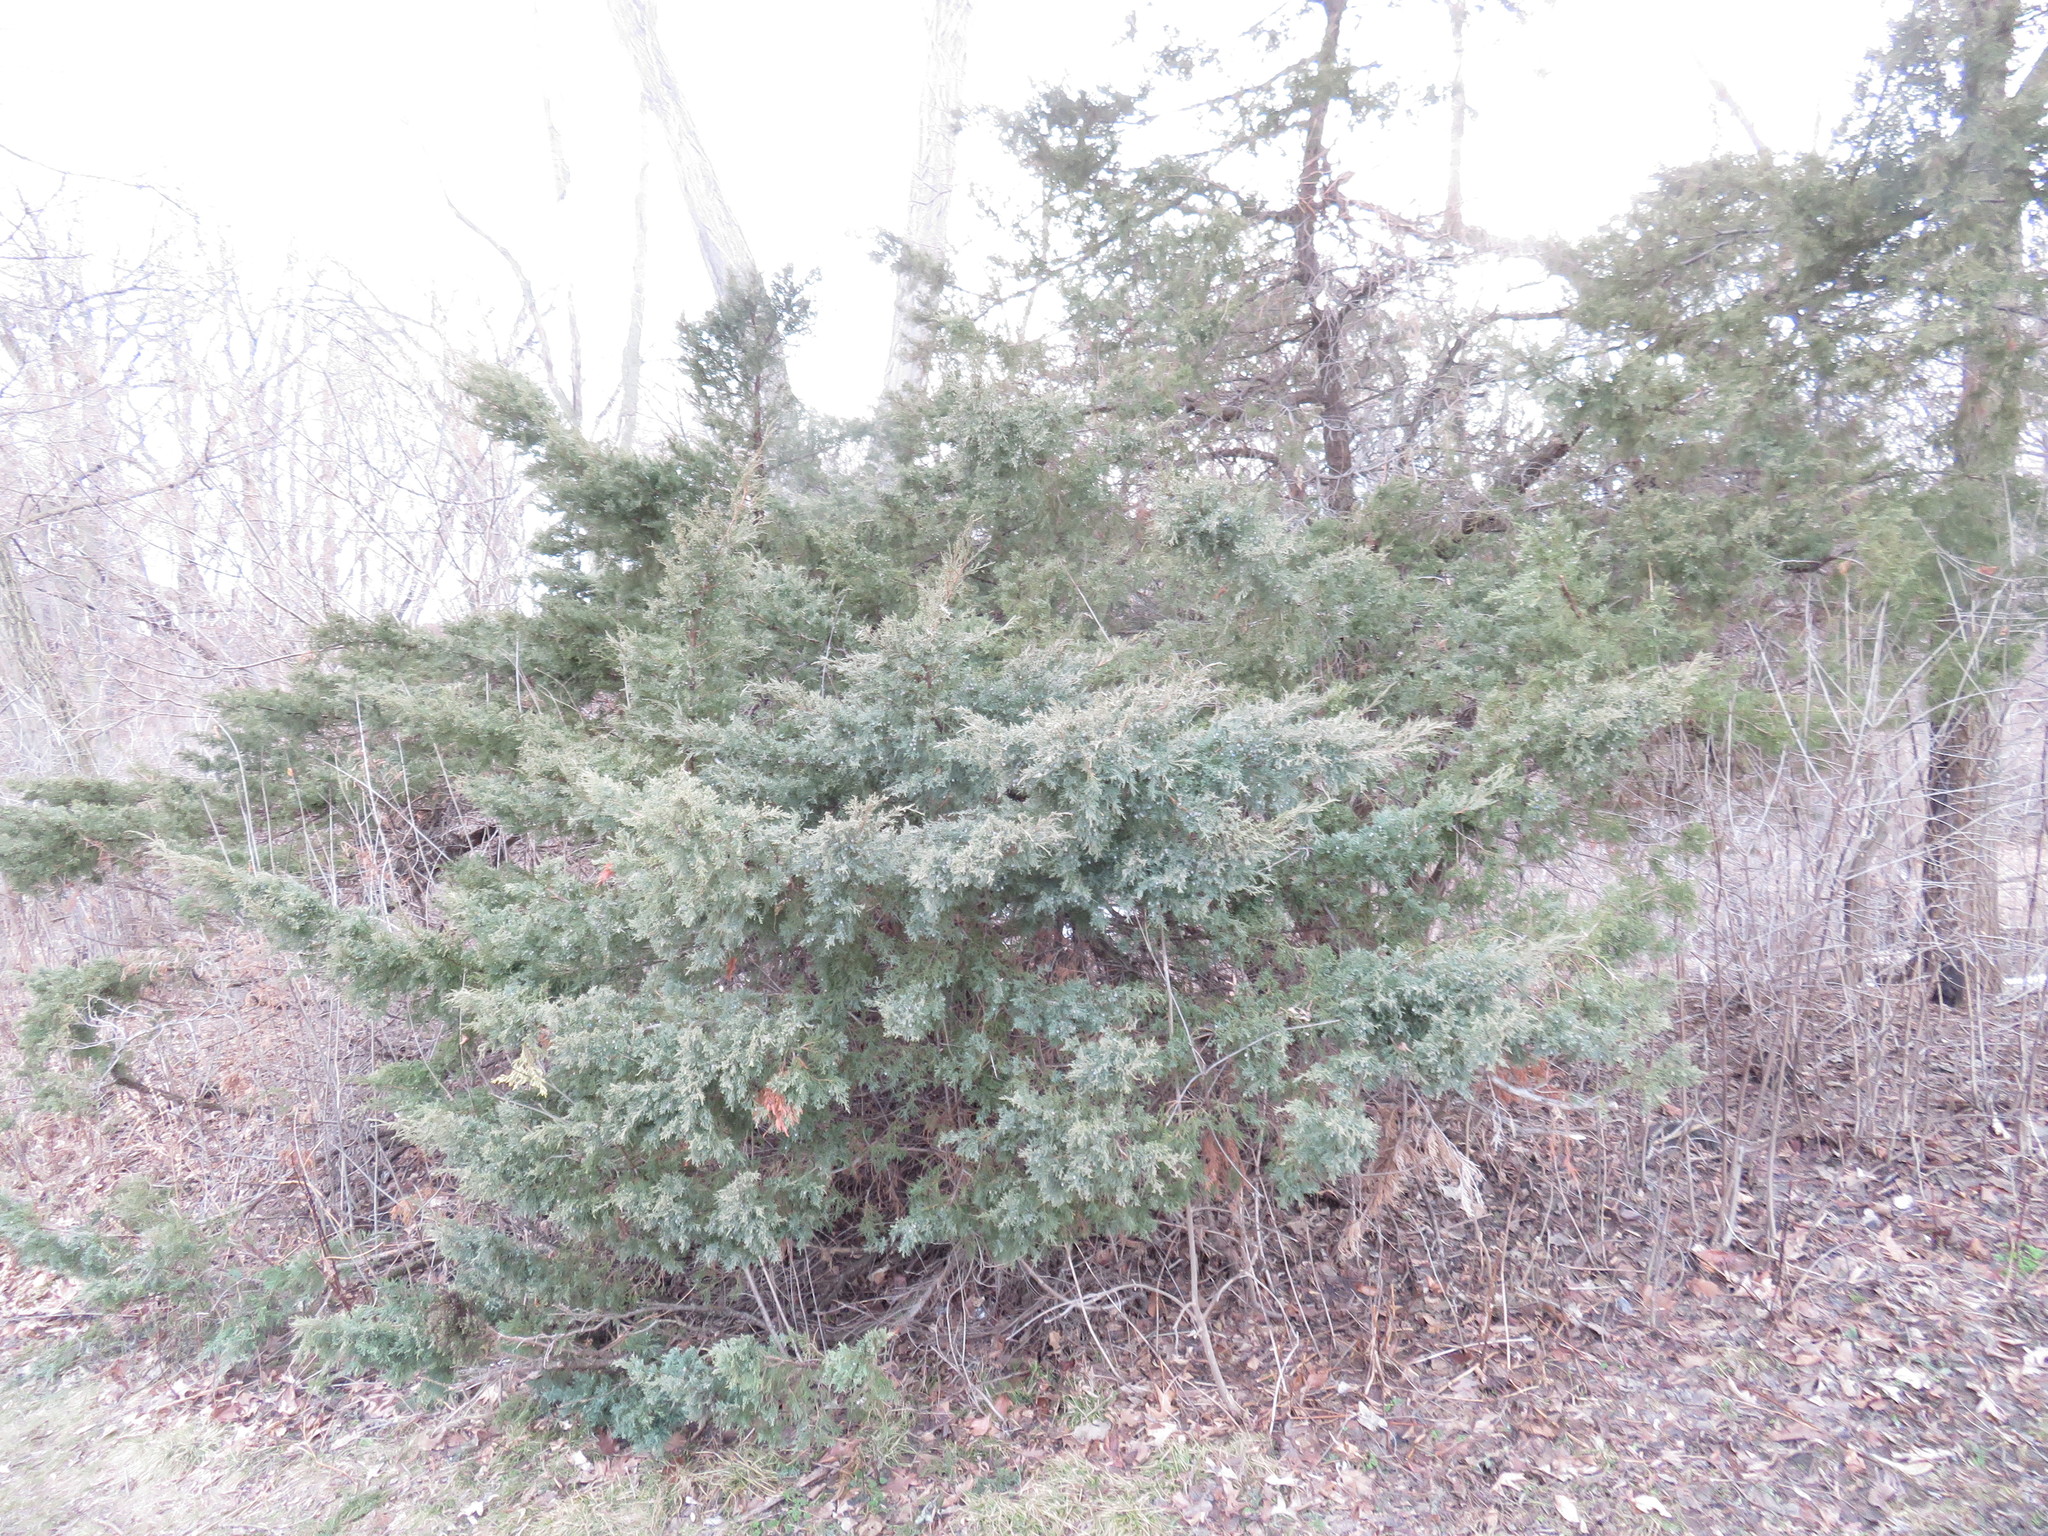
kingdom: Plantae
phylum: Tracheophyta
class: Pinopsida
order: Pinales
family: Cupressaceae
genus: Juniperus
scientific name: Juniperus virginiana
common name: Red juniper
